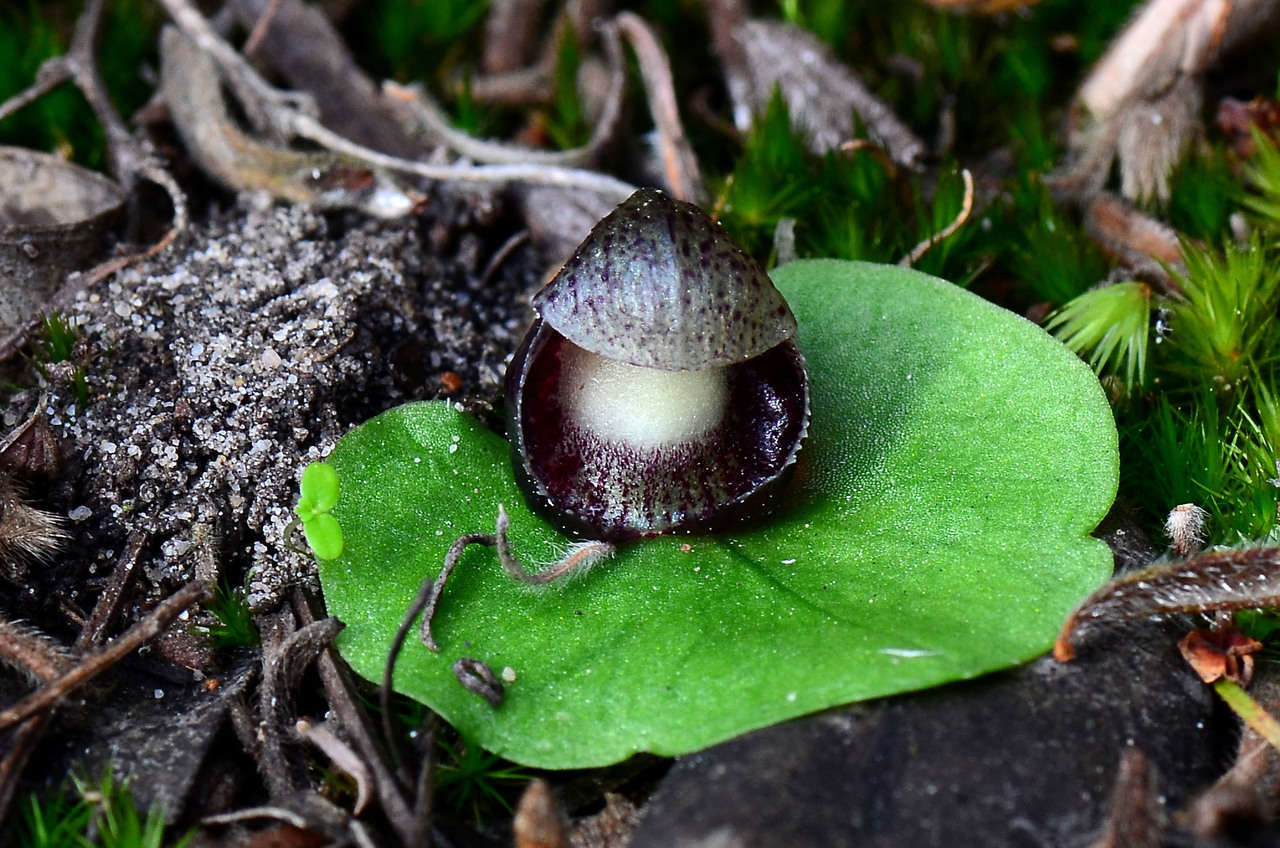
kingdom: Plantae
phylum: Tracheophyta
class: Liliopsida
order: Asparagales
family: Orchidaceae
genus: Corybas
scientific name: Corybas incurvus
